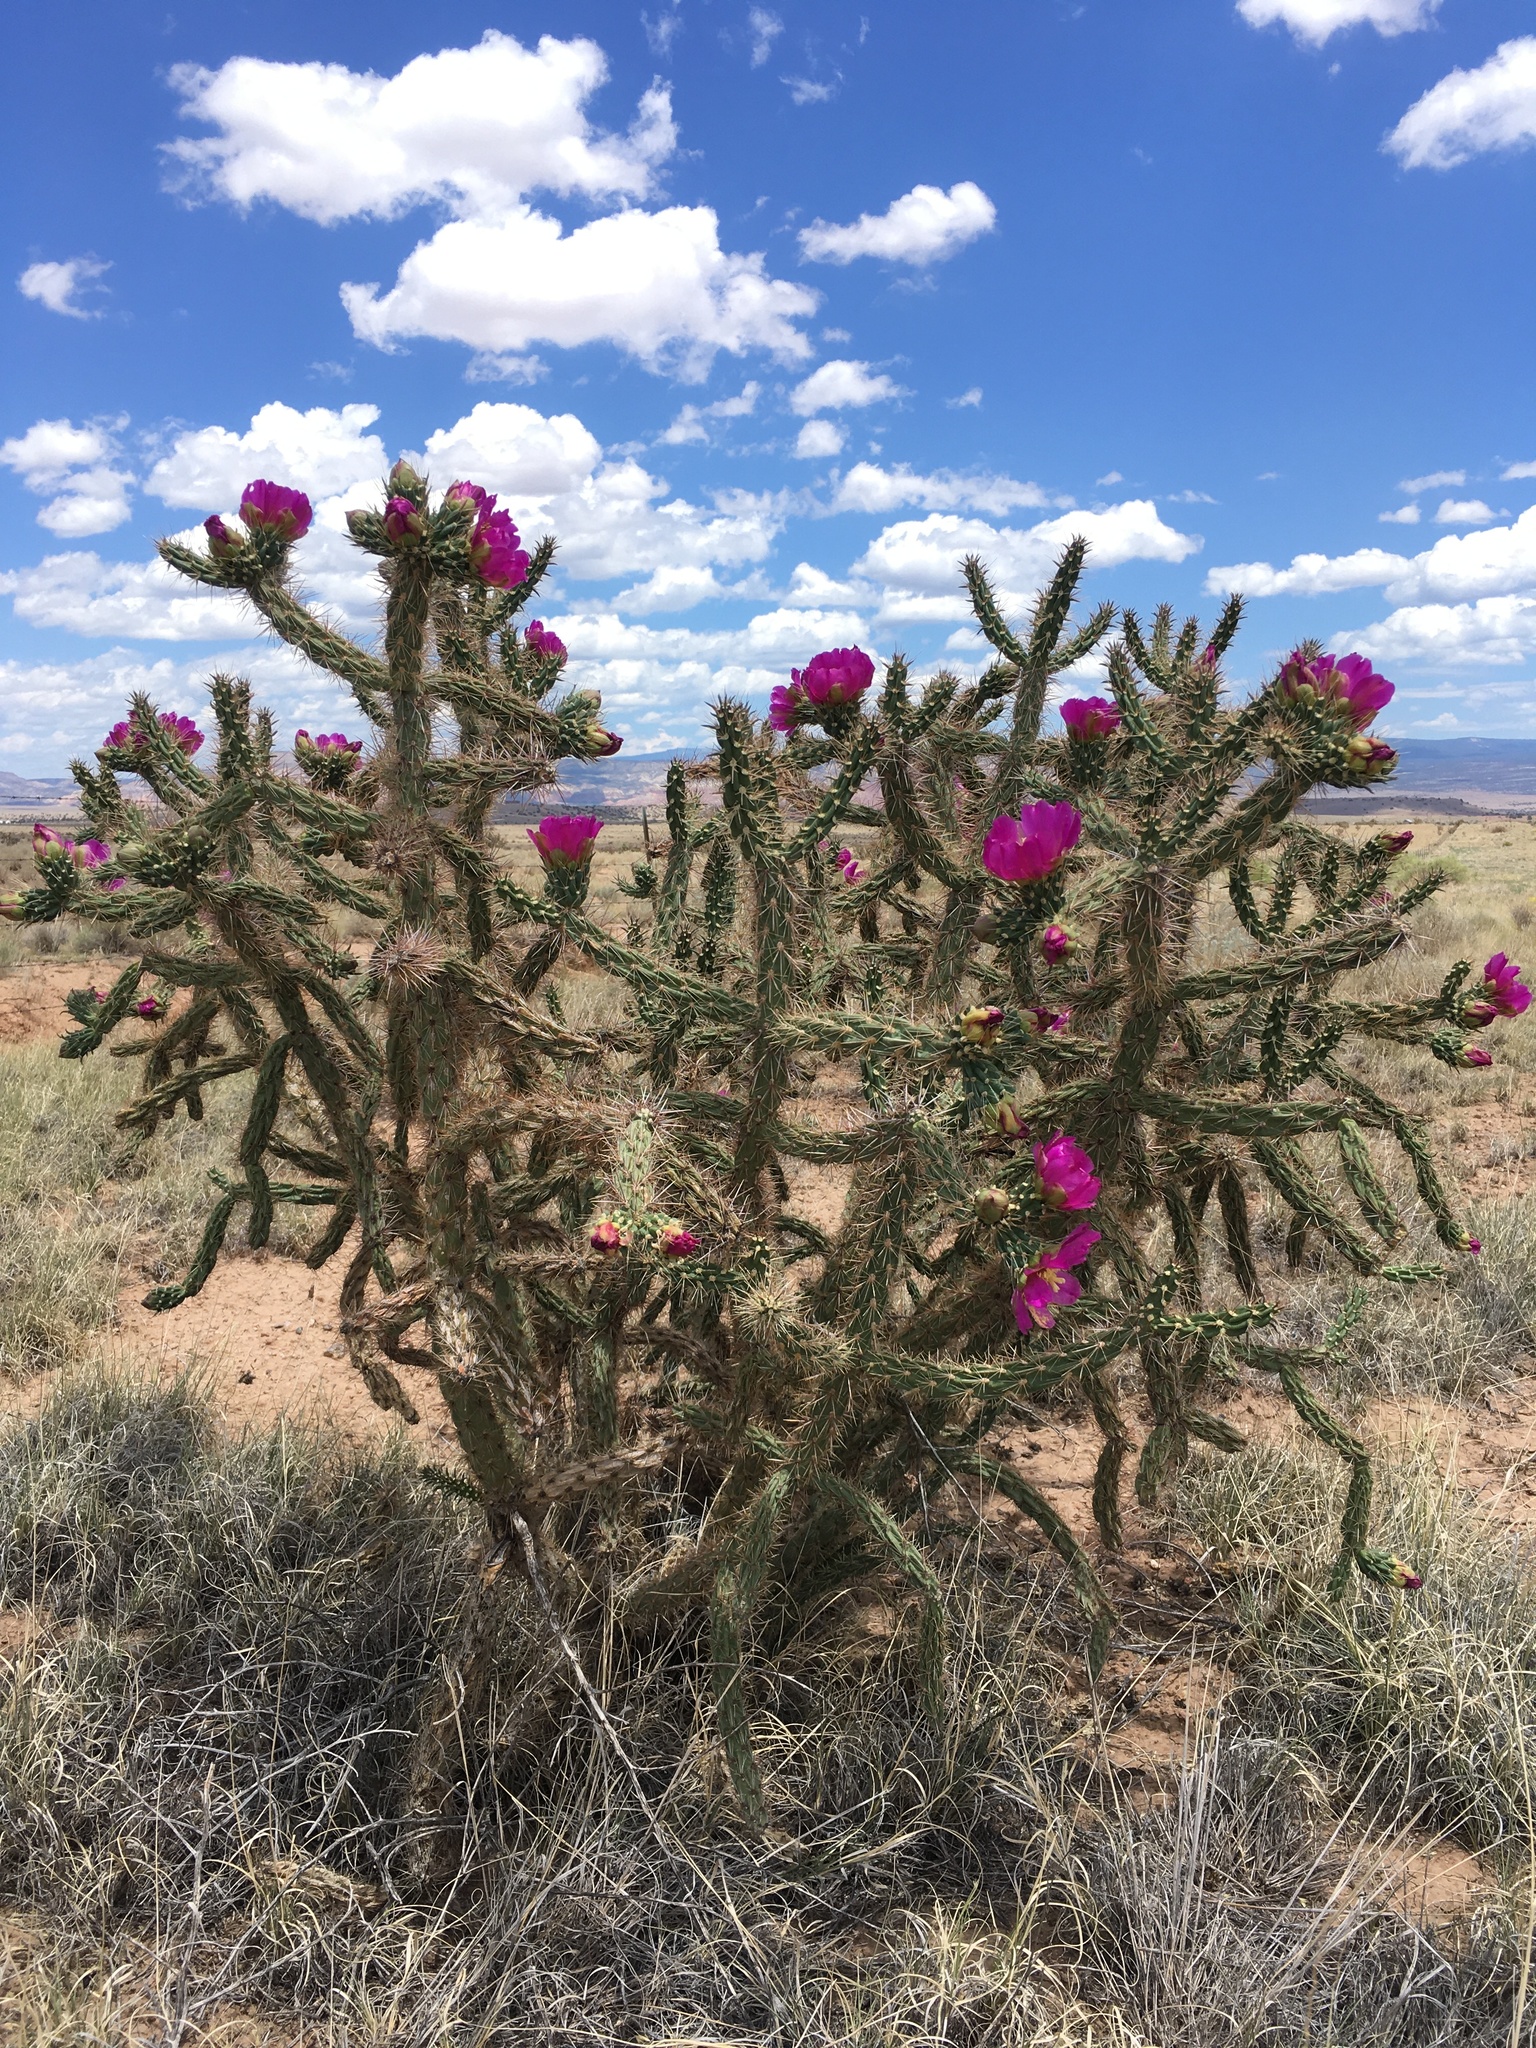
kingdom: Plantae
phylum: Tracheophyta
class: Magnoliopsida
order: Caryophyllales
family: Cactaceae
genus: Cylindropuntia
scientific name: Cylindropuntia imbricata
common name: Candelabrum cactus
